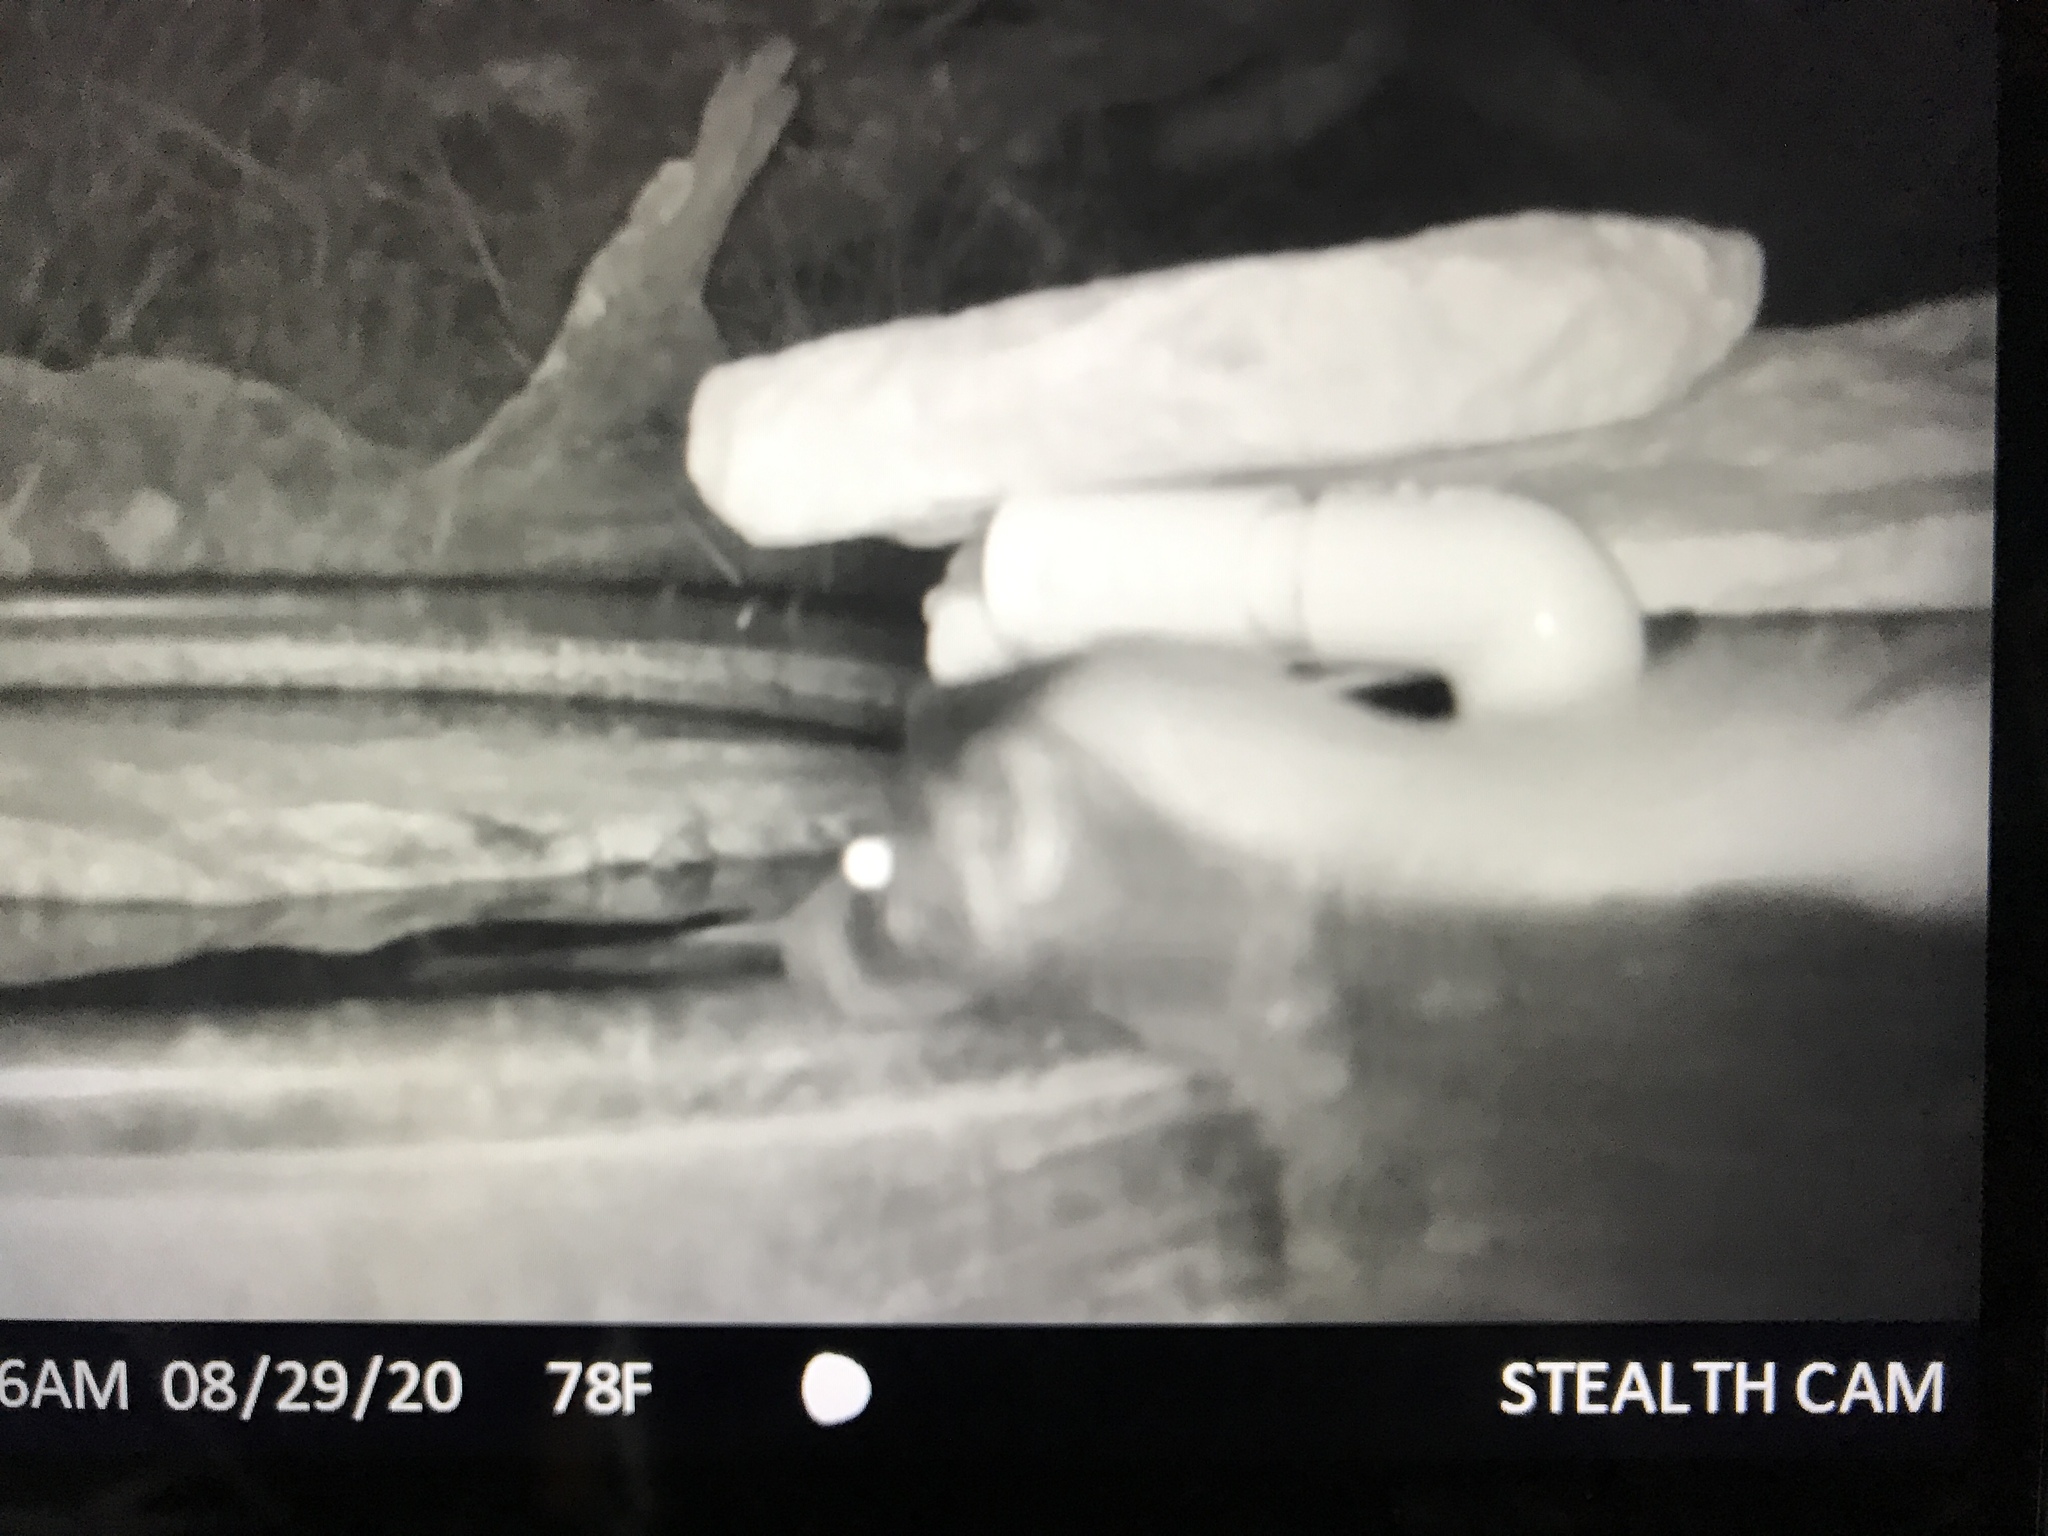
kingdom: Animalia
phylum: Chordata
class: Mammalia
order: Carnivora
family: Mephitidae
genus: Mephitis
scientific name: Mephitis mephitis
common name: Striped skunk
